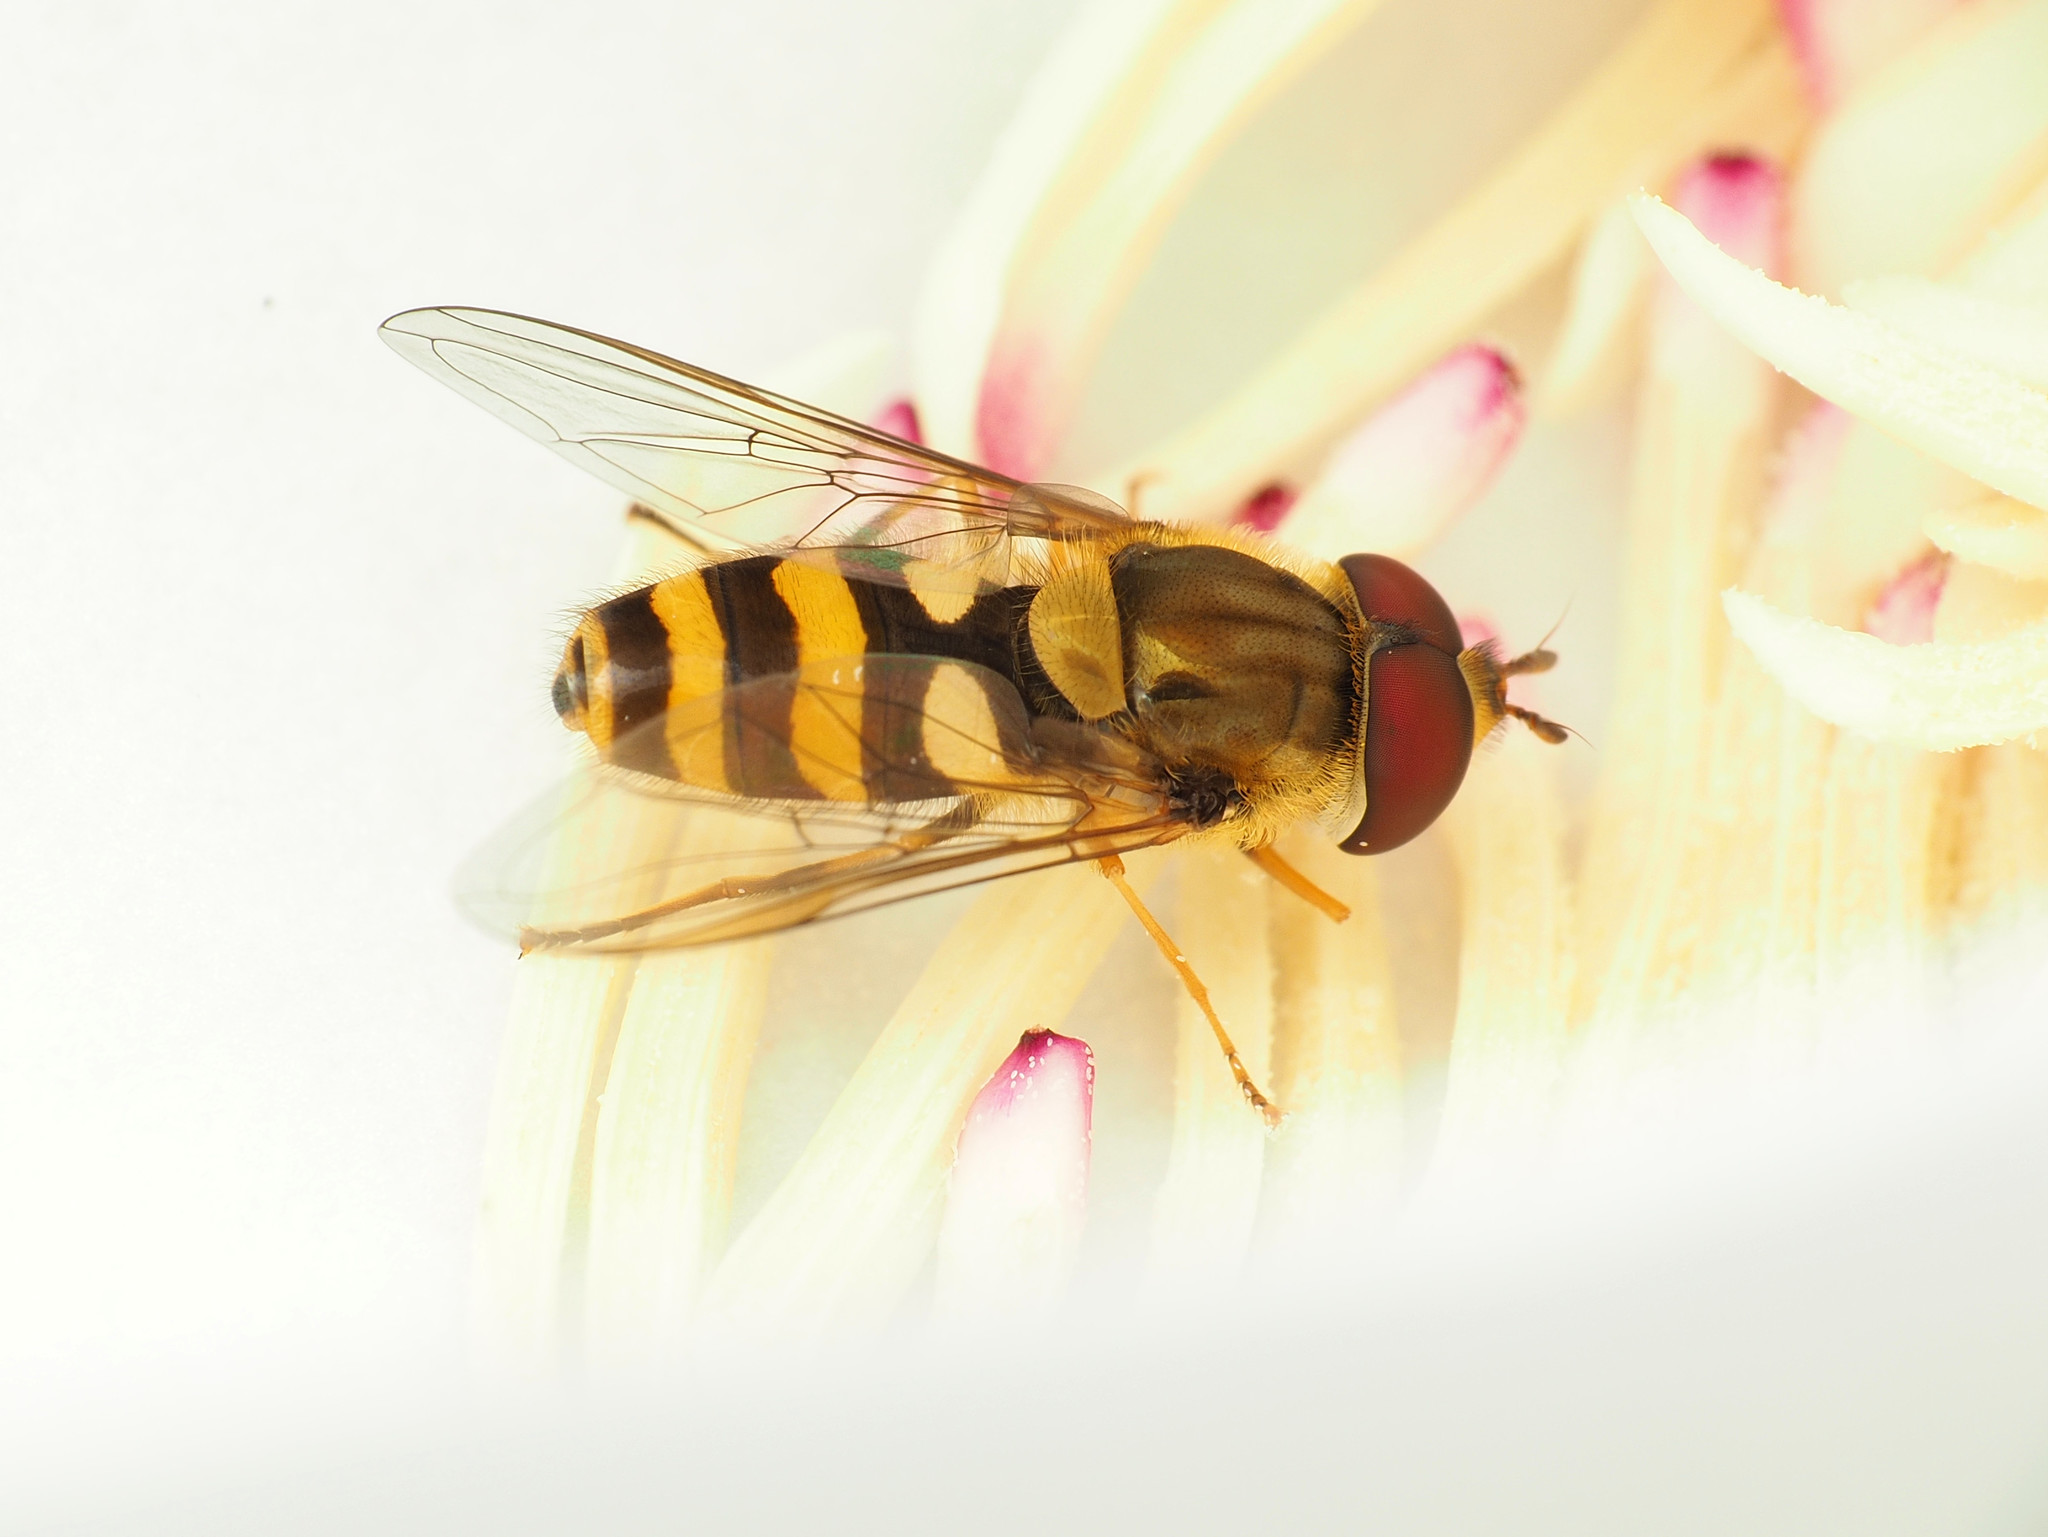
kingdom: Animalia
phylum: Arthropoda
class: Insecta
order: Diptera
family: Syrphidae
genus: Syrphus
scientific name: Syrphus knabi
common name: Eastern flower fly
